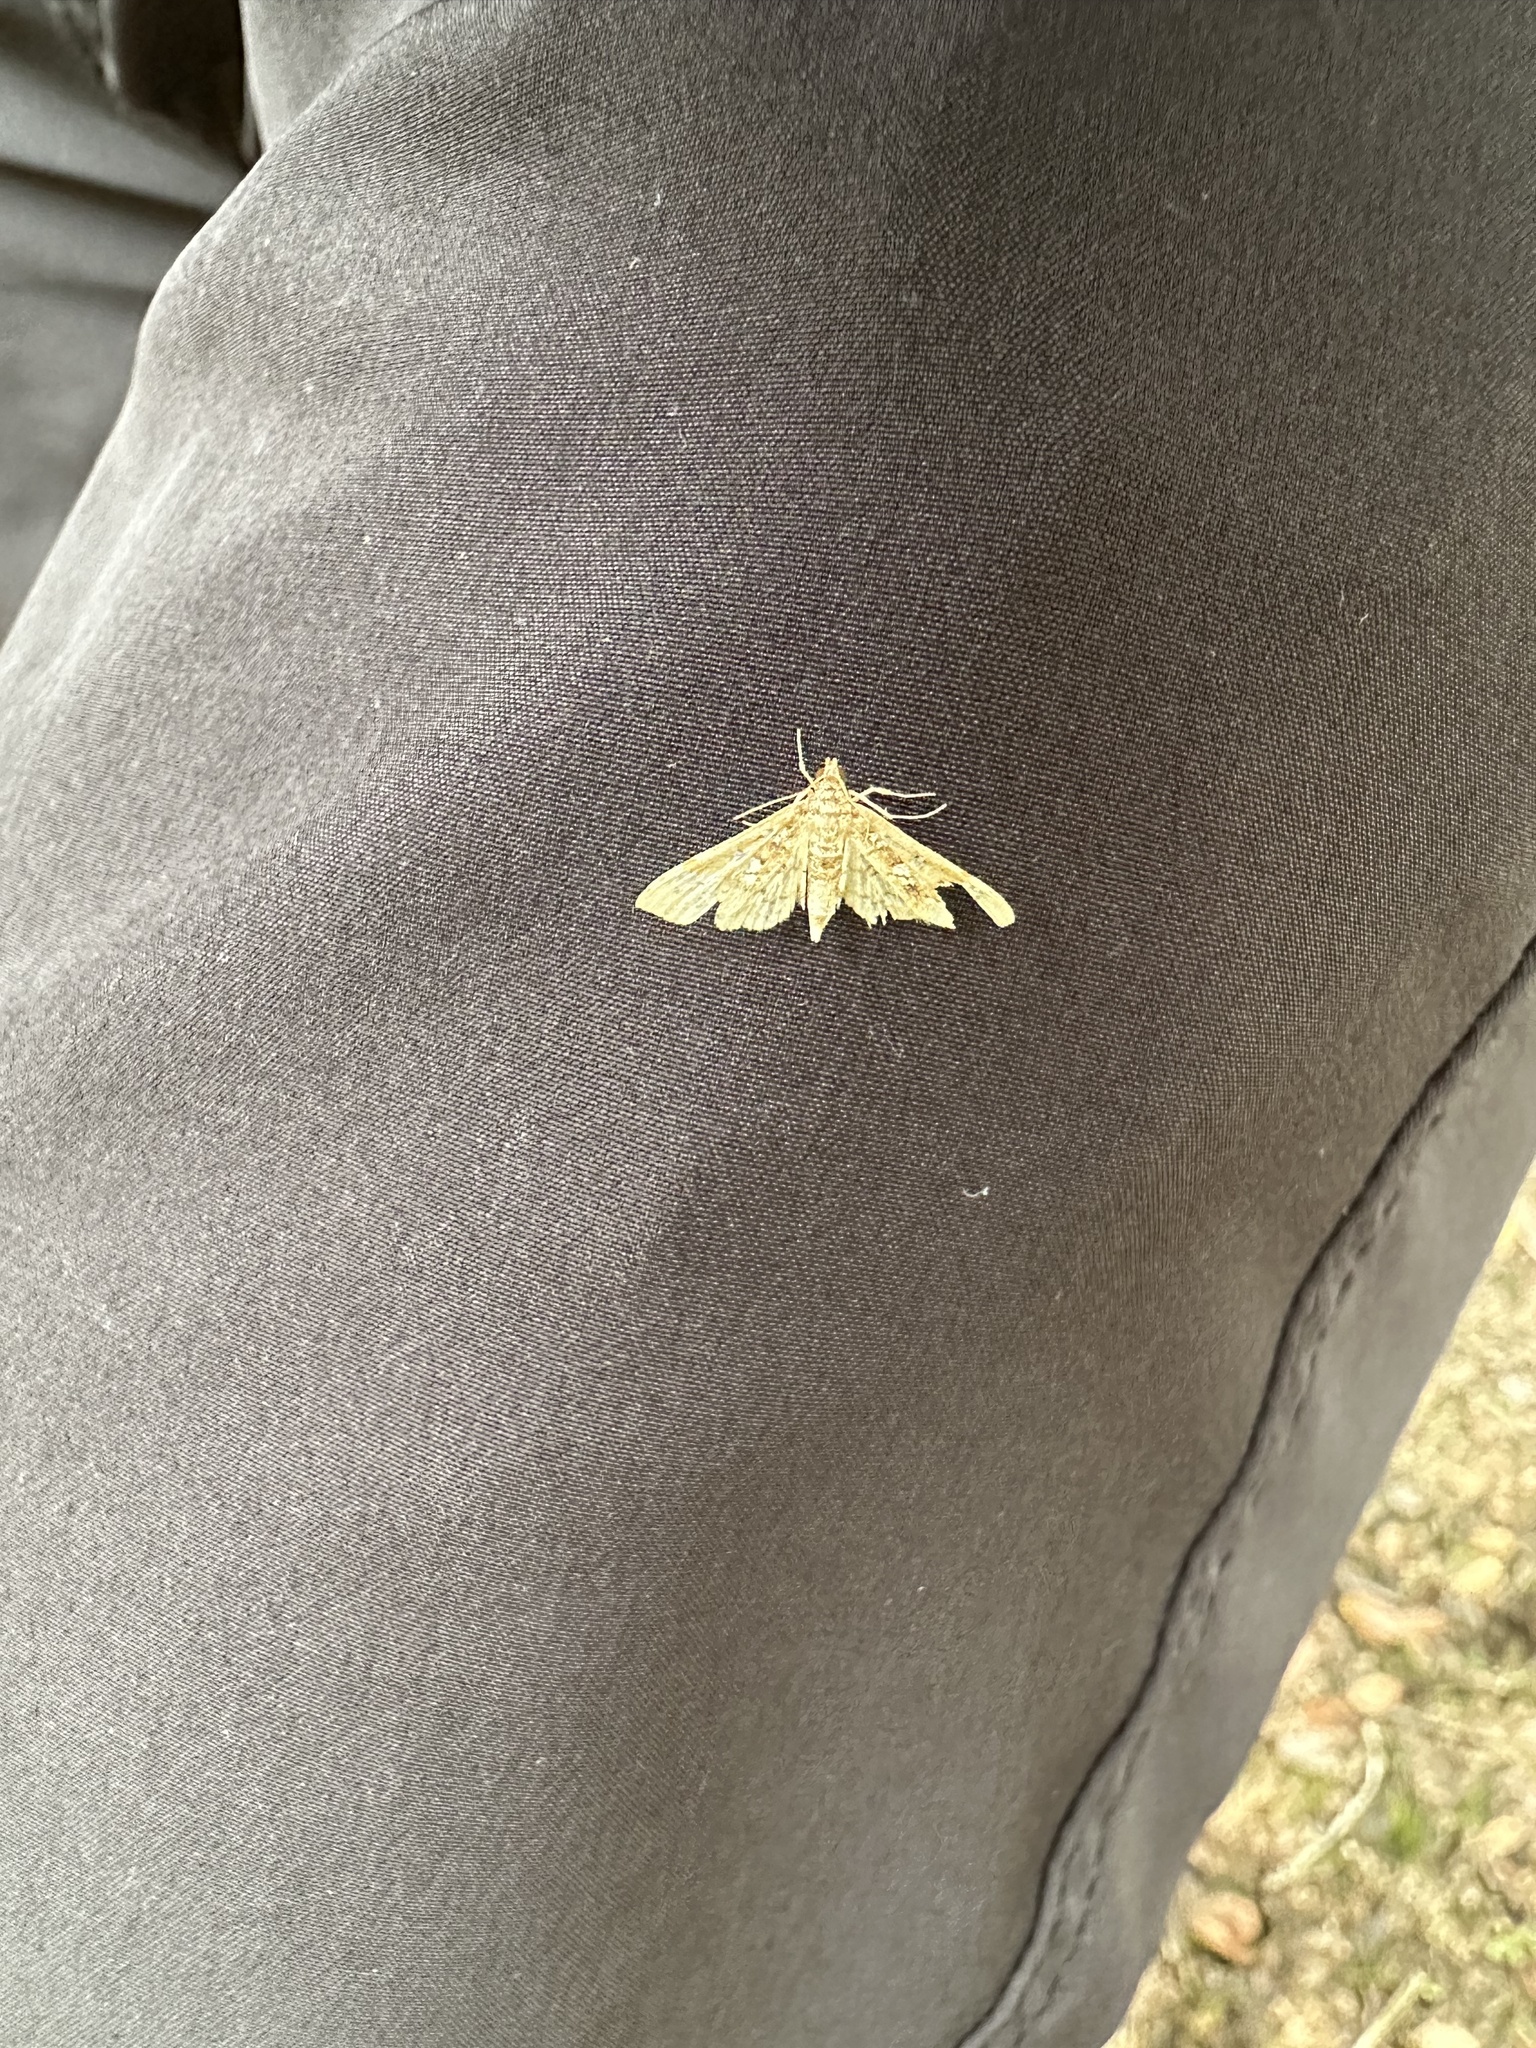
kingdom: Animalia
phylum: Arthropoda
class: Insecta
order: Lepidoptera
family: Crambidae
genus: Samea
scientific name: Samea multiplicalis
